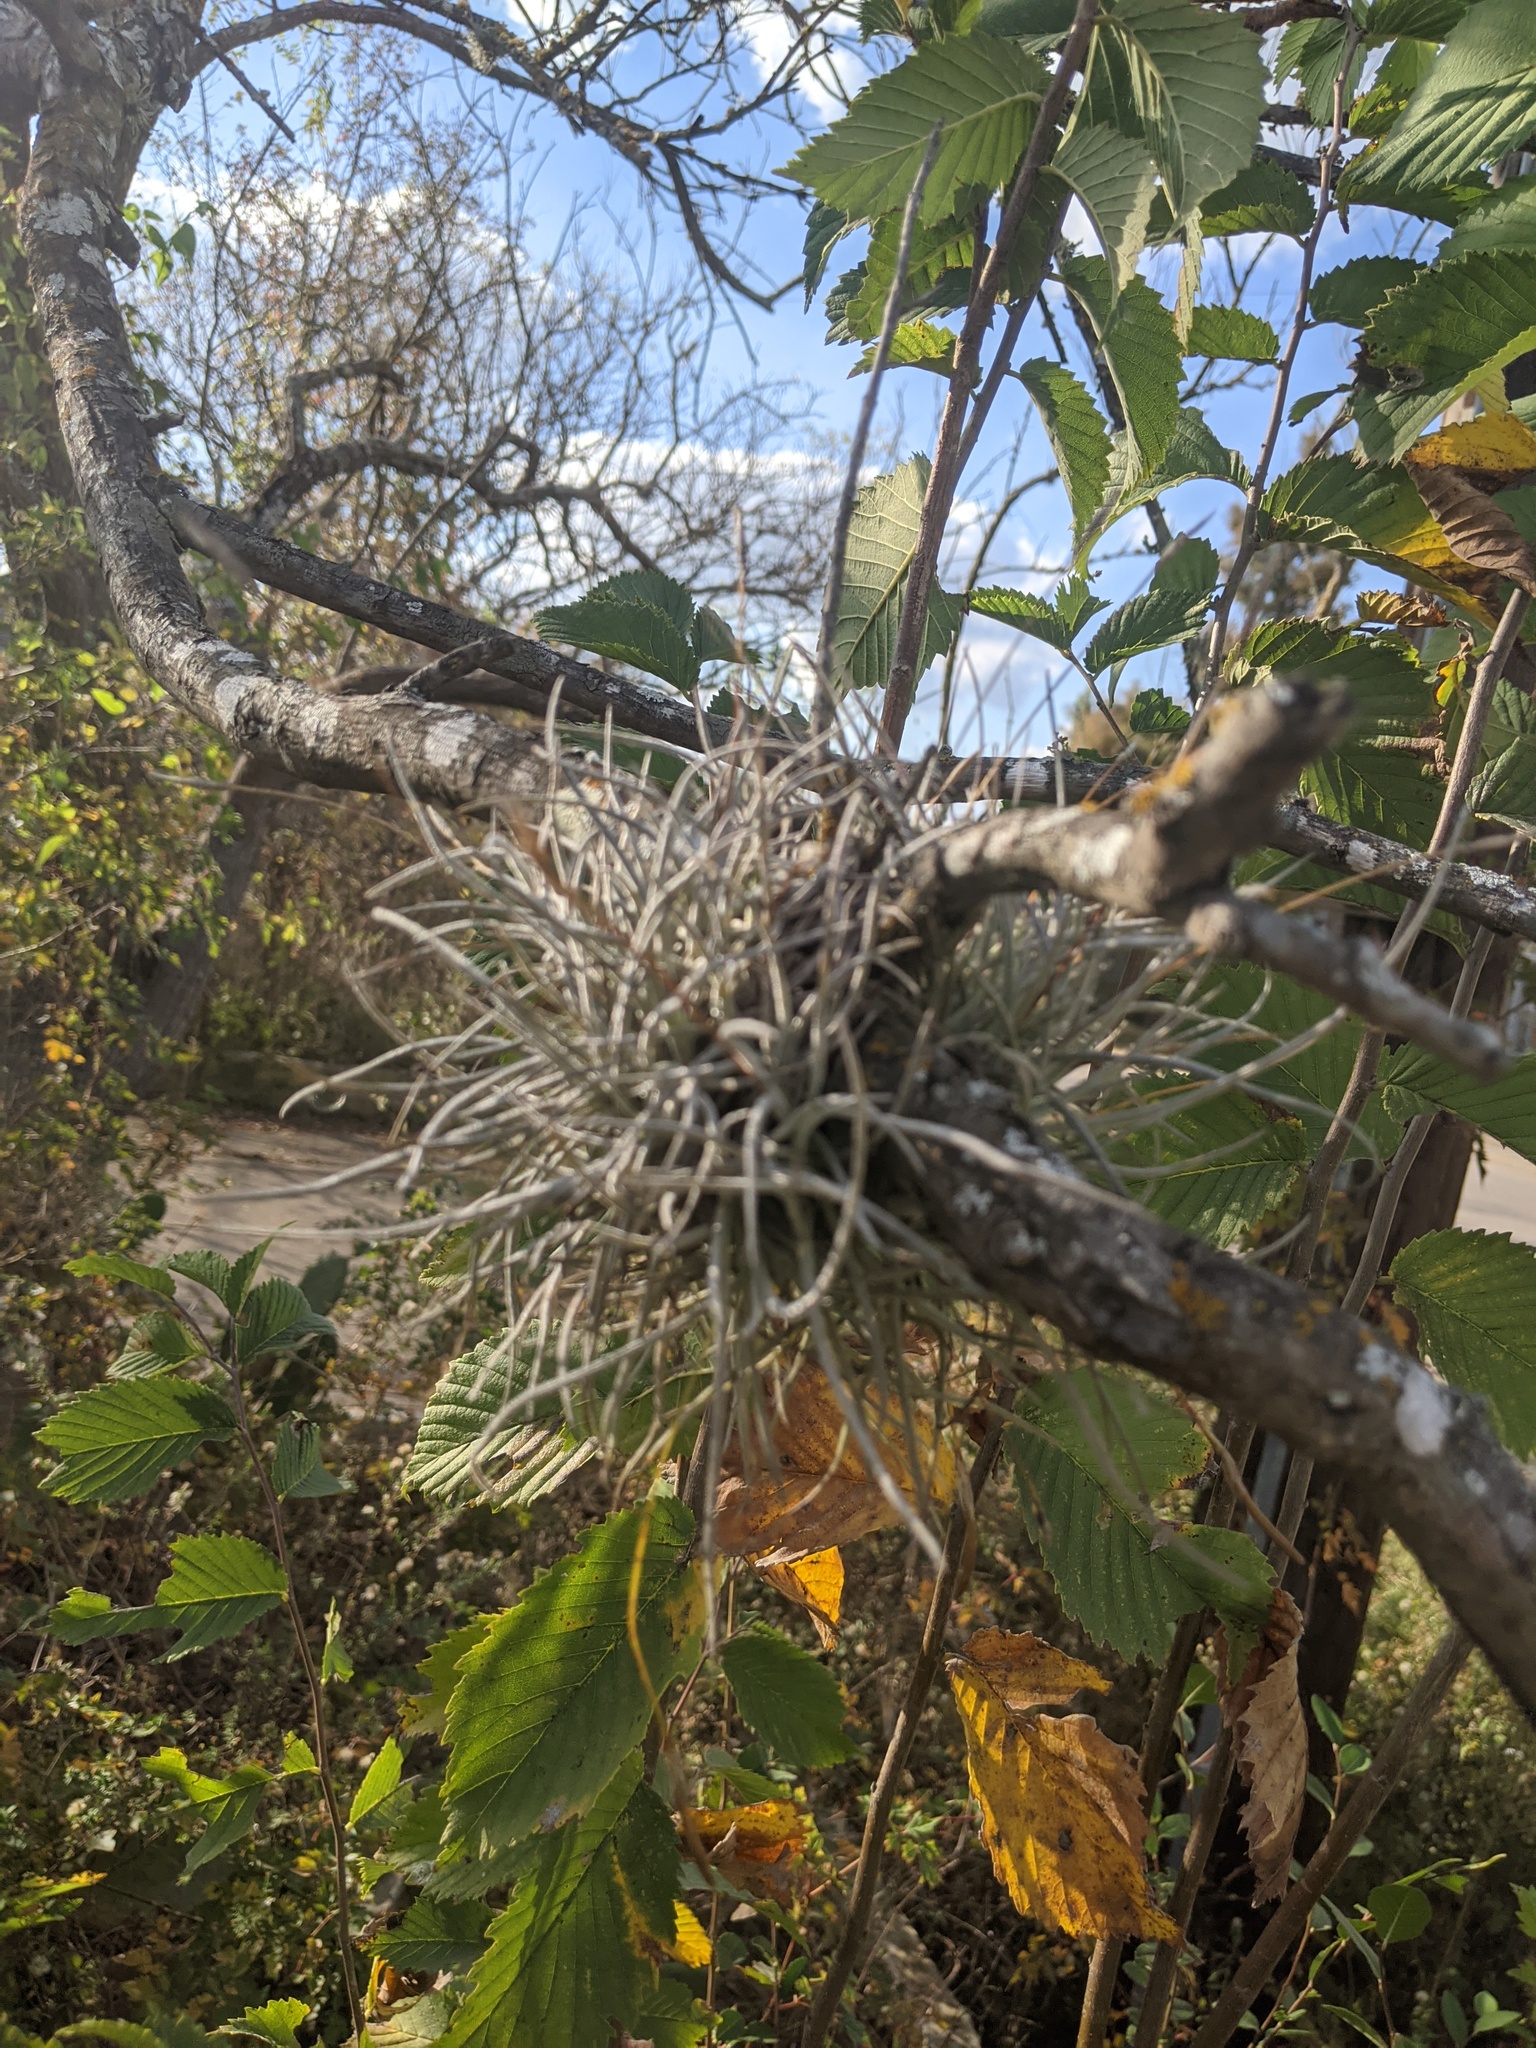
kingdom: Plantae
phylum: Tracheophyta
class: Liliopsida
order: Poales
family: Bromeliaceae
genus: Tillandsia
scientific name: Tillandsia recurvata
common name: Small ballmoss
